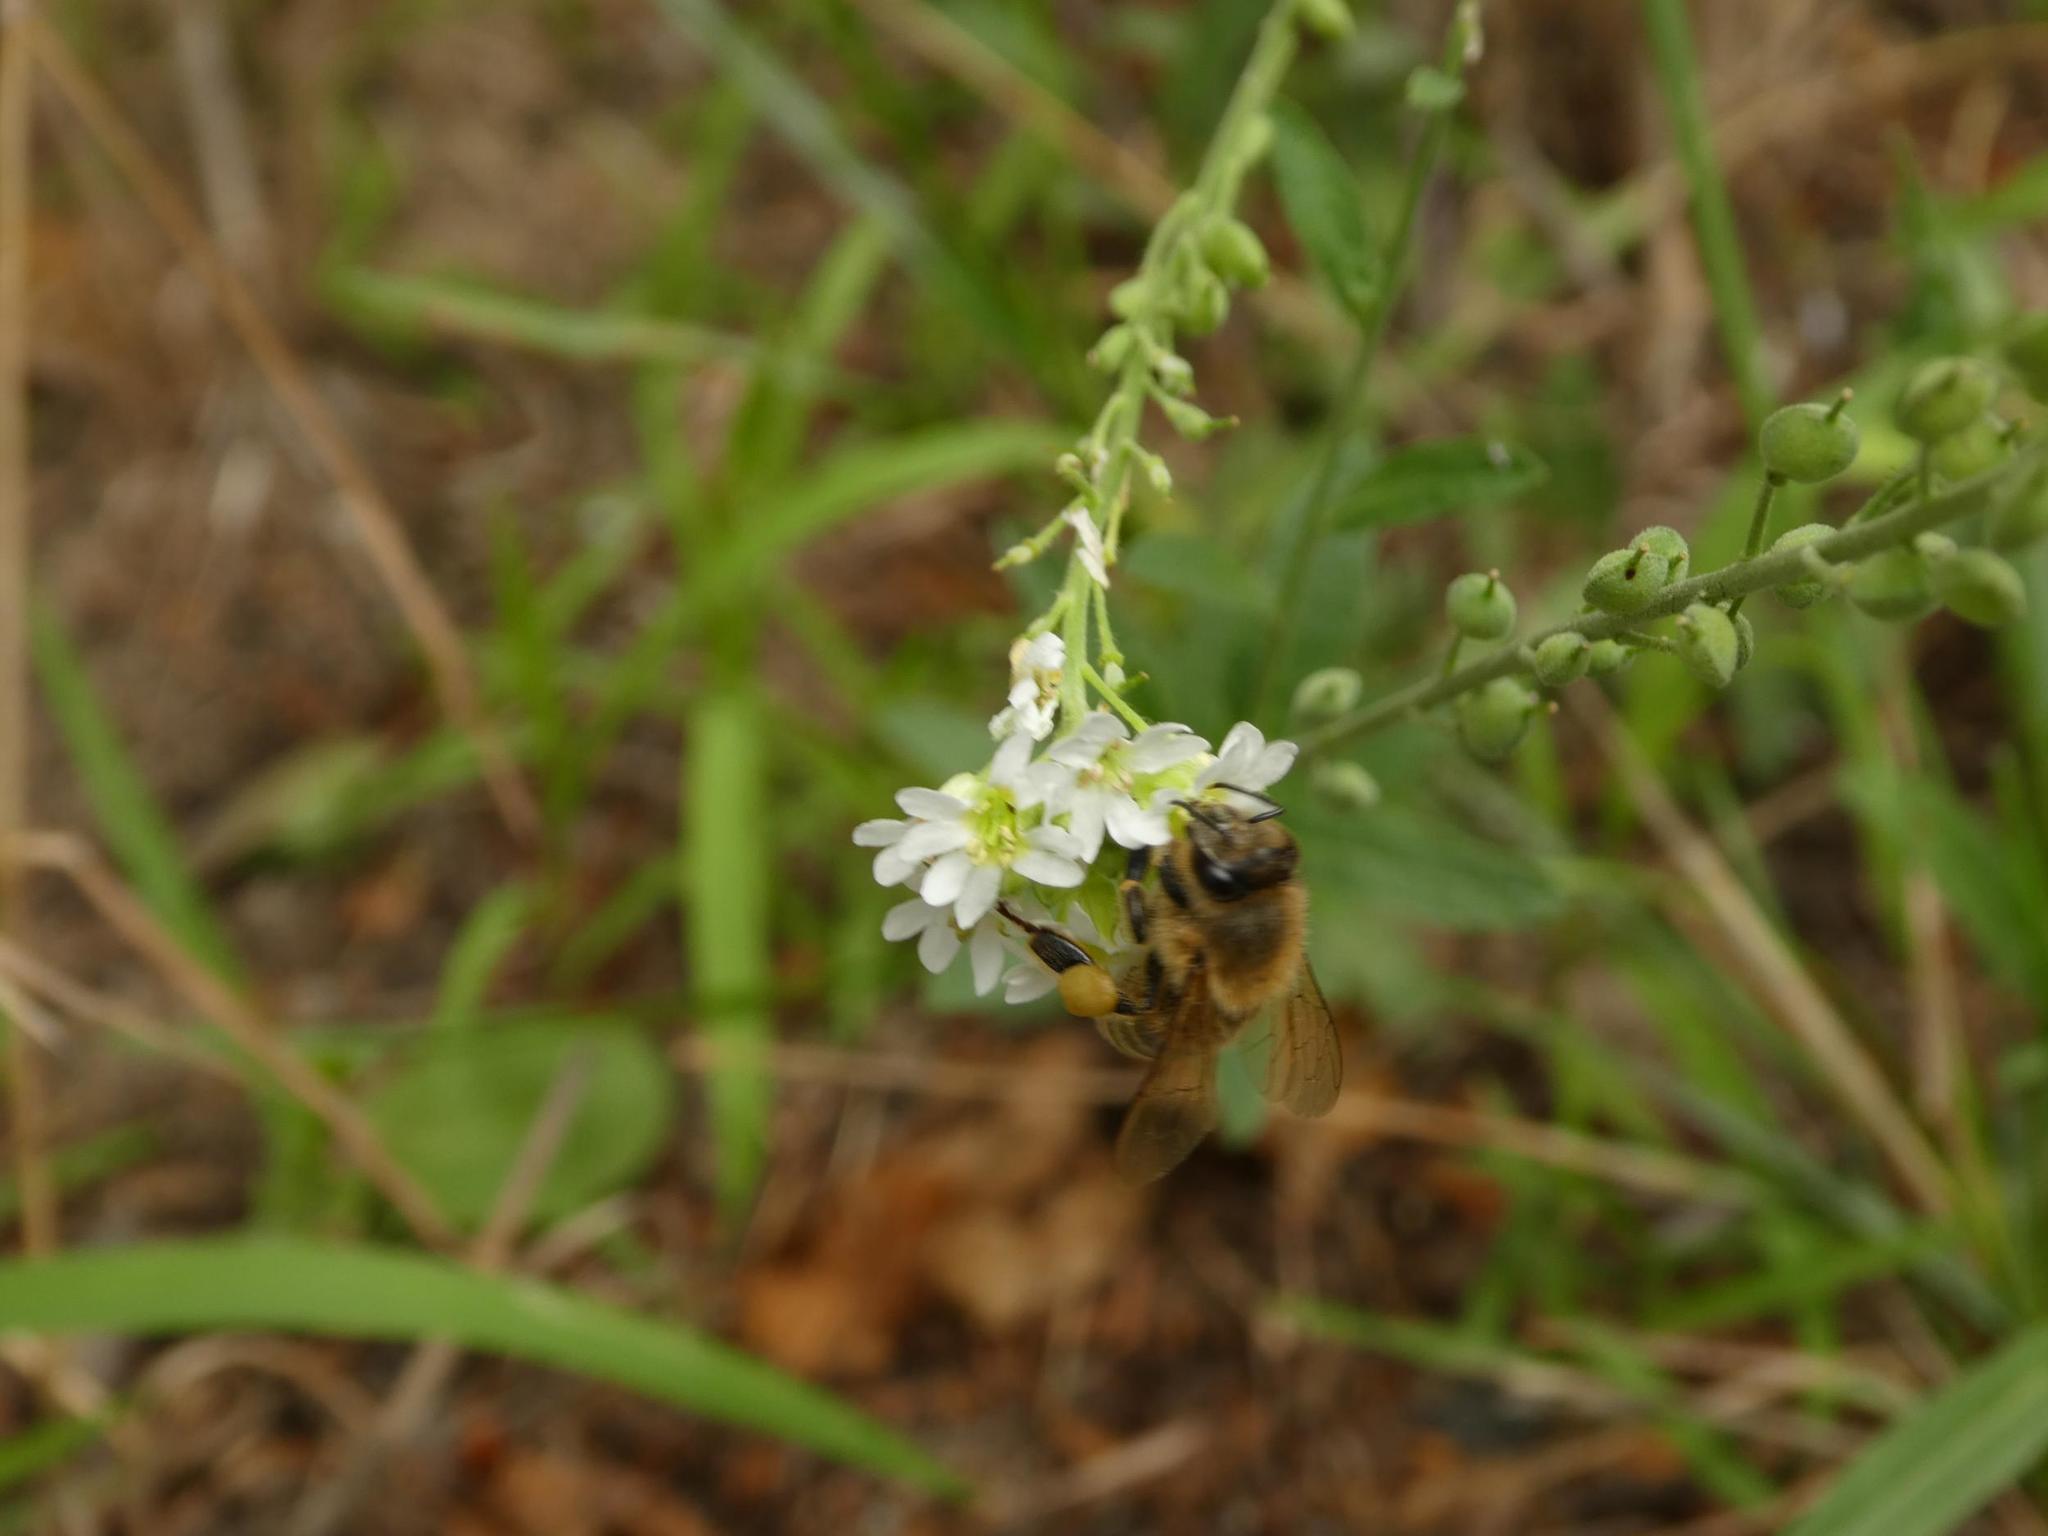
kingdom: Animalia
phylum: Arthropoda
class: Insecta
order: Hymenoptera
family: Apidae
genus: Apis
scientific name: Apis mellifera
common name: Honey bee
